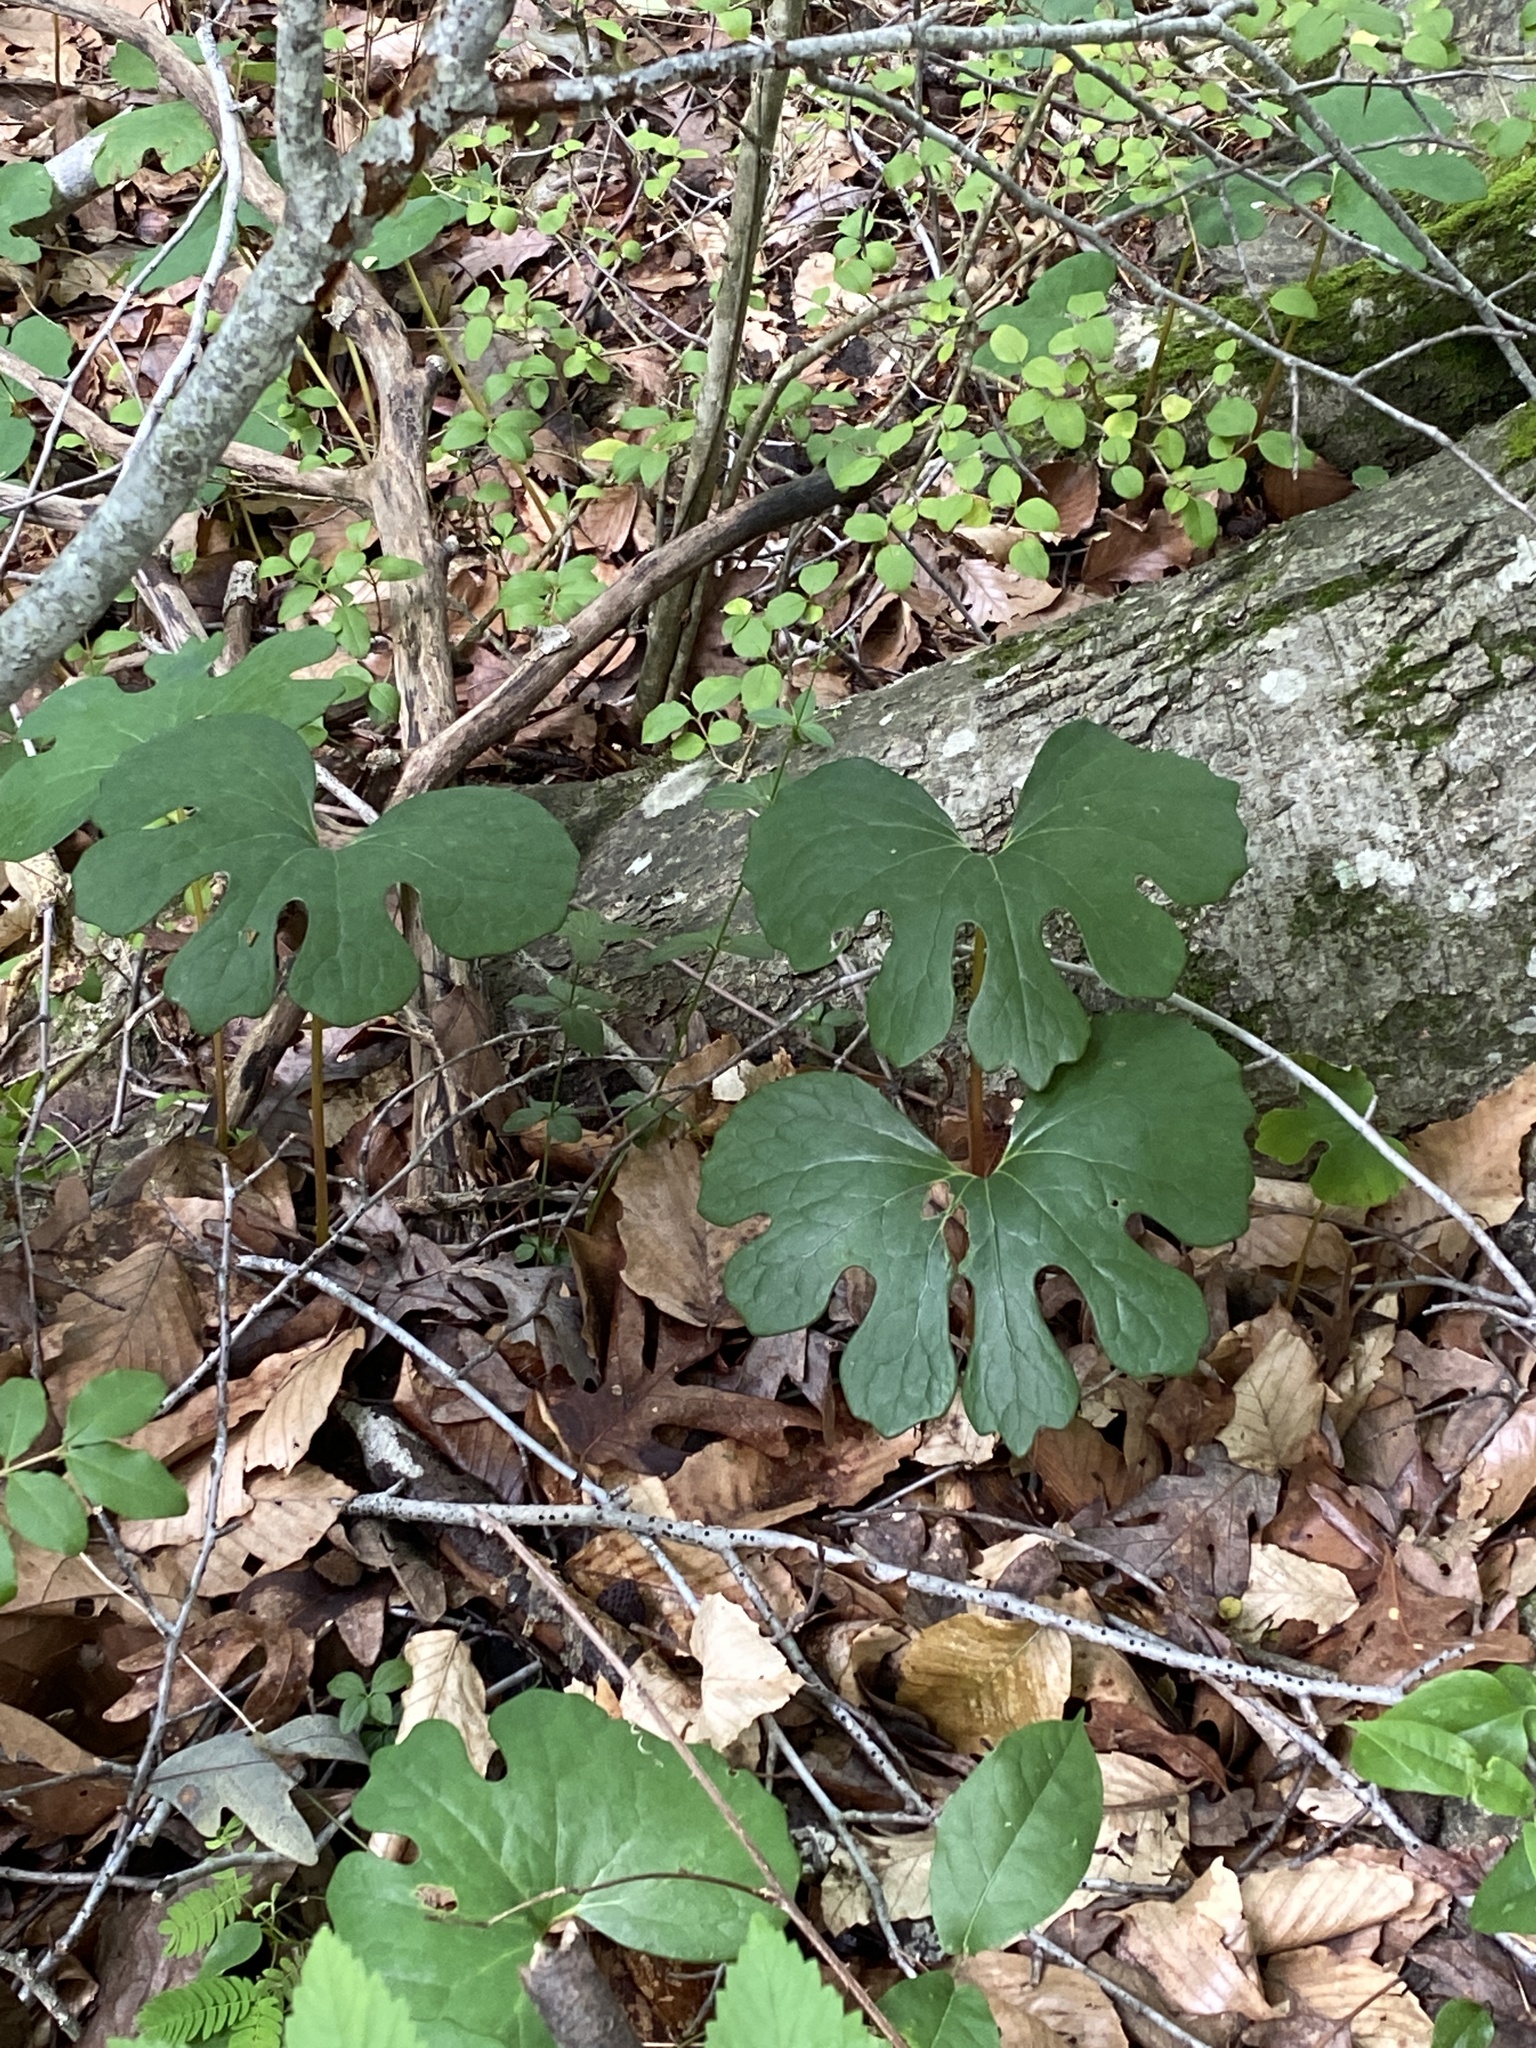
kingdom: Plantae
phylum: Tracheophyta
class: Magnoliopsida
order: Ranunculales
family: Papaveraceae
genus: Sanguinaria
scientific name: Sanguinaria canadensis
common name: Bloodroot
